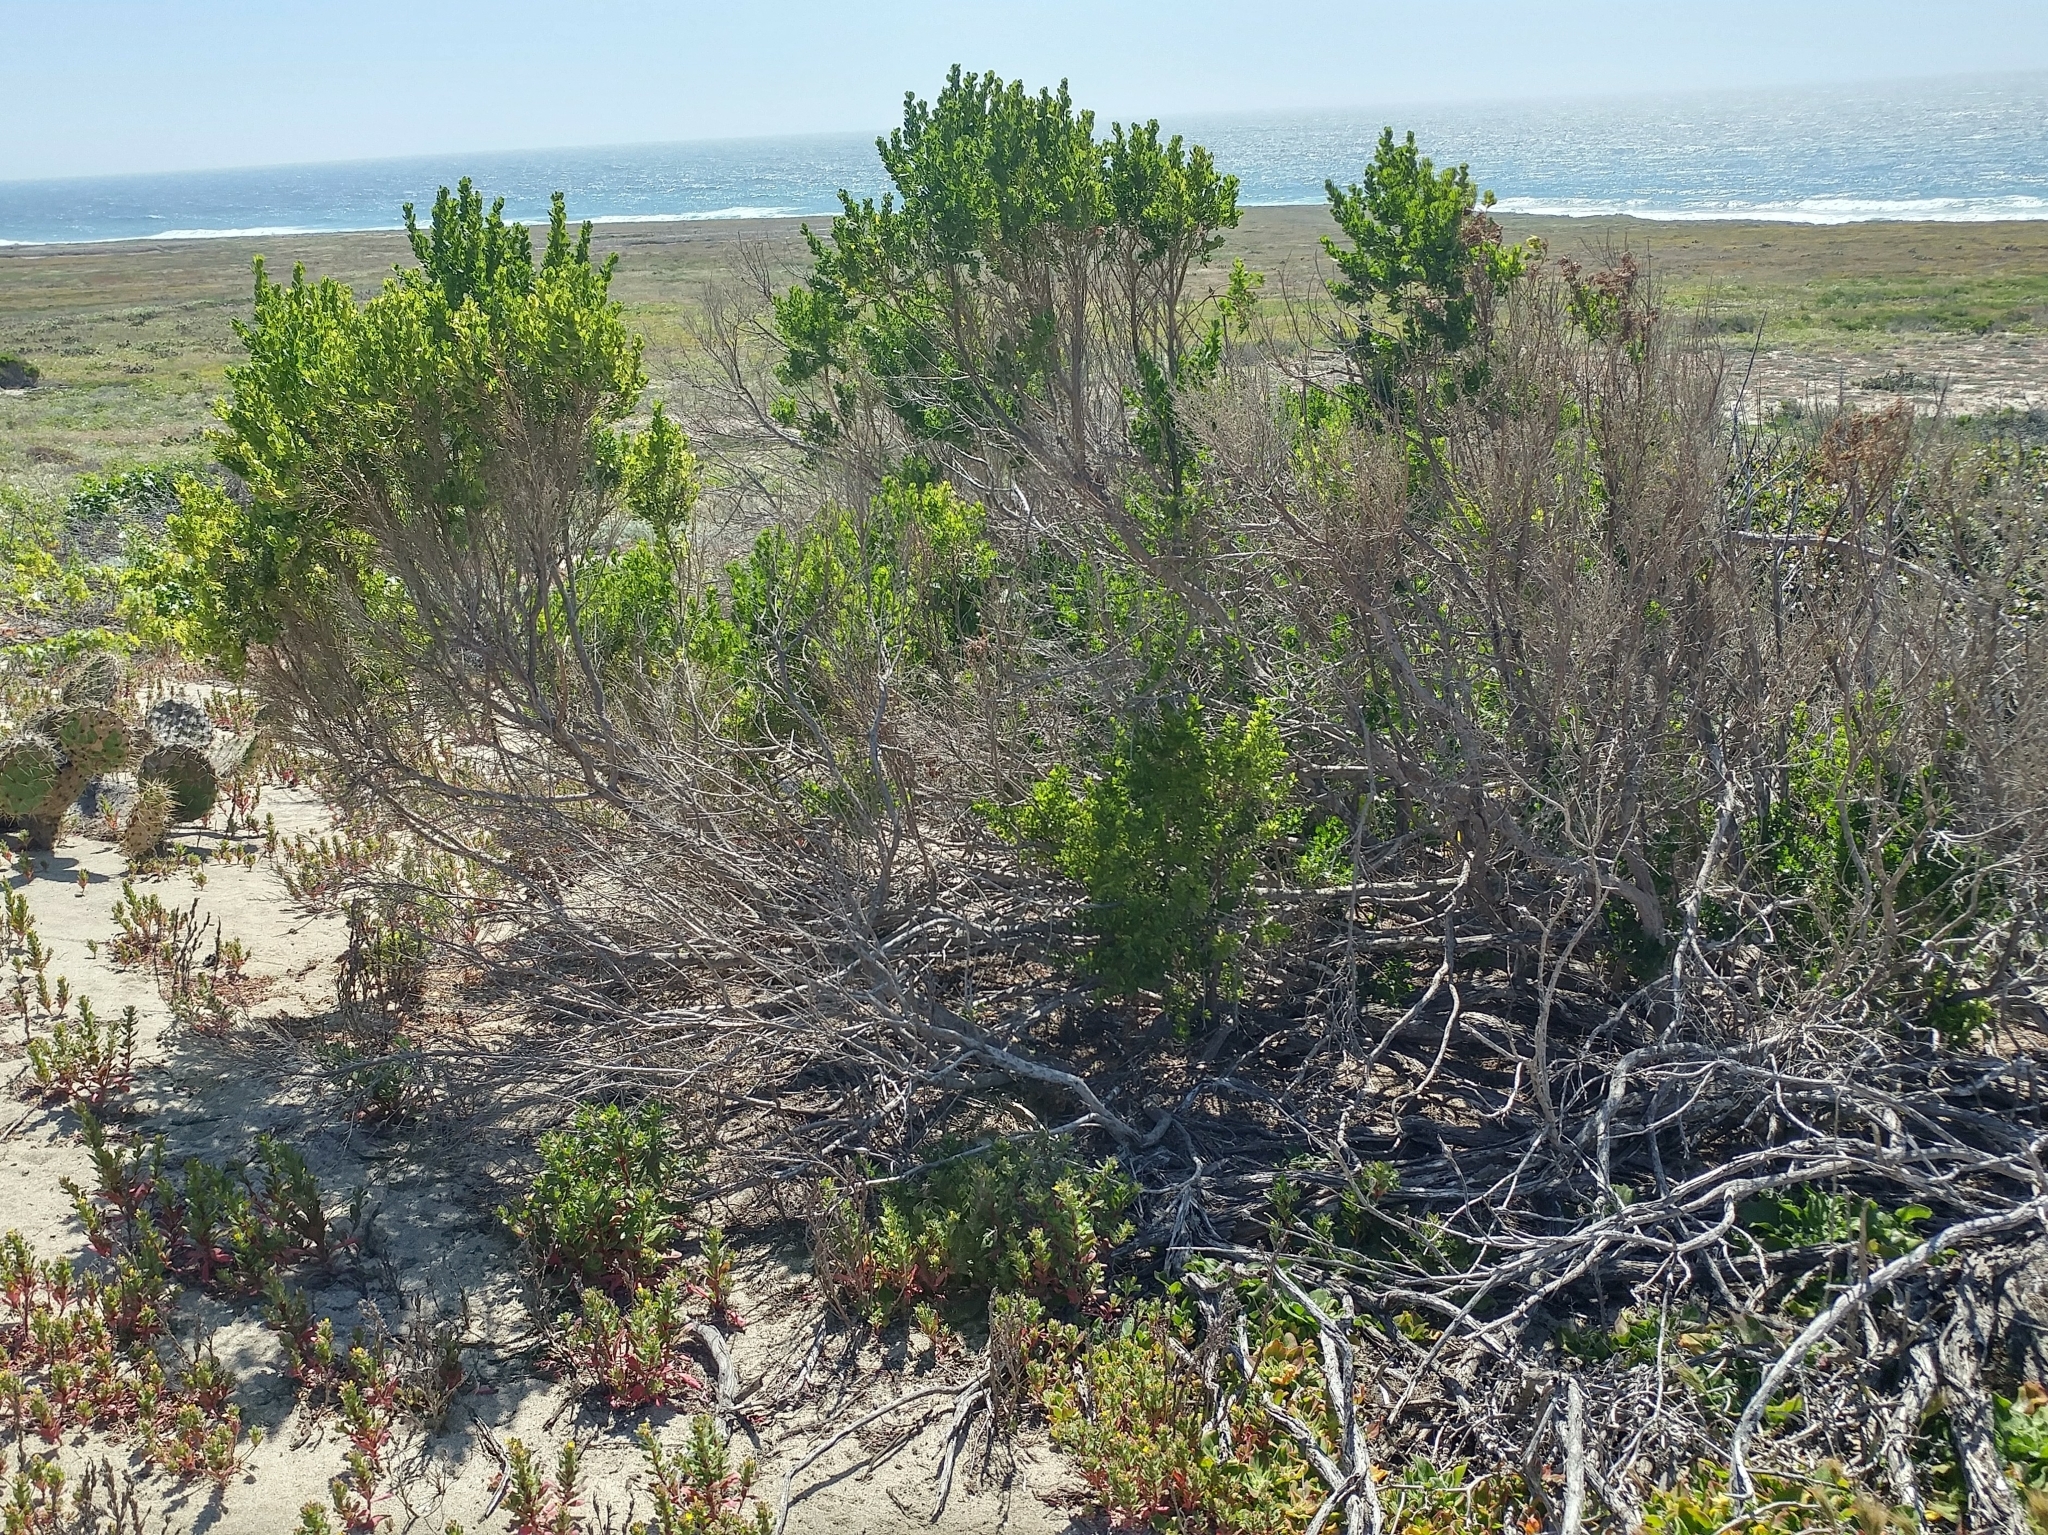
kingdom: Plantae
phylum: Tracheophyta
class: Magnoliopsida
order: Asterales
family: Asteraceae
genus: Baccharis
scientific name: Baccharis pilularis
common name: Coyotebrush
